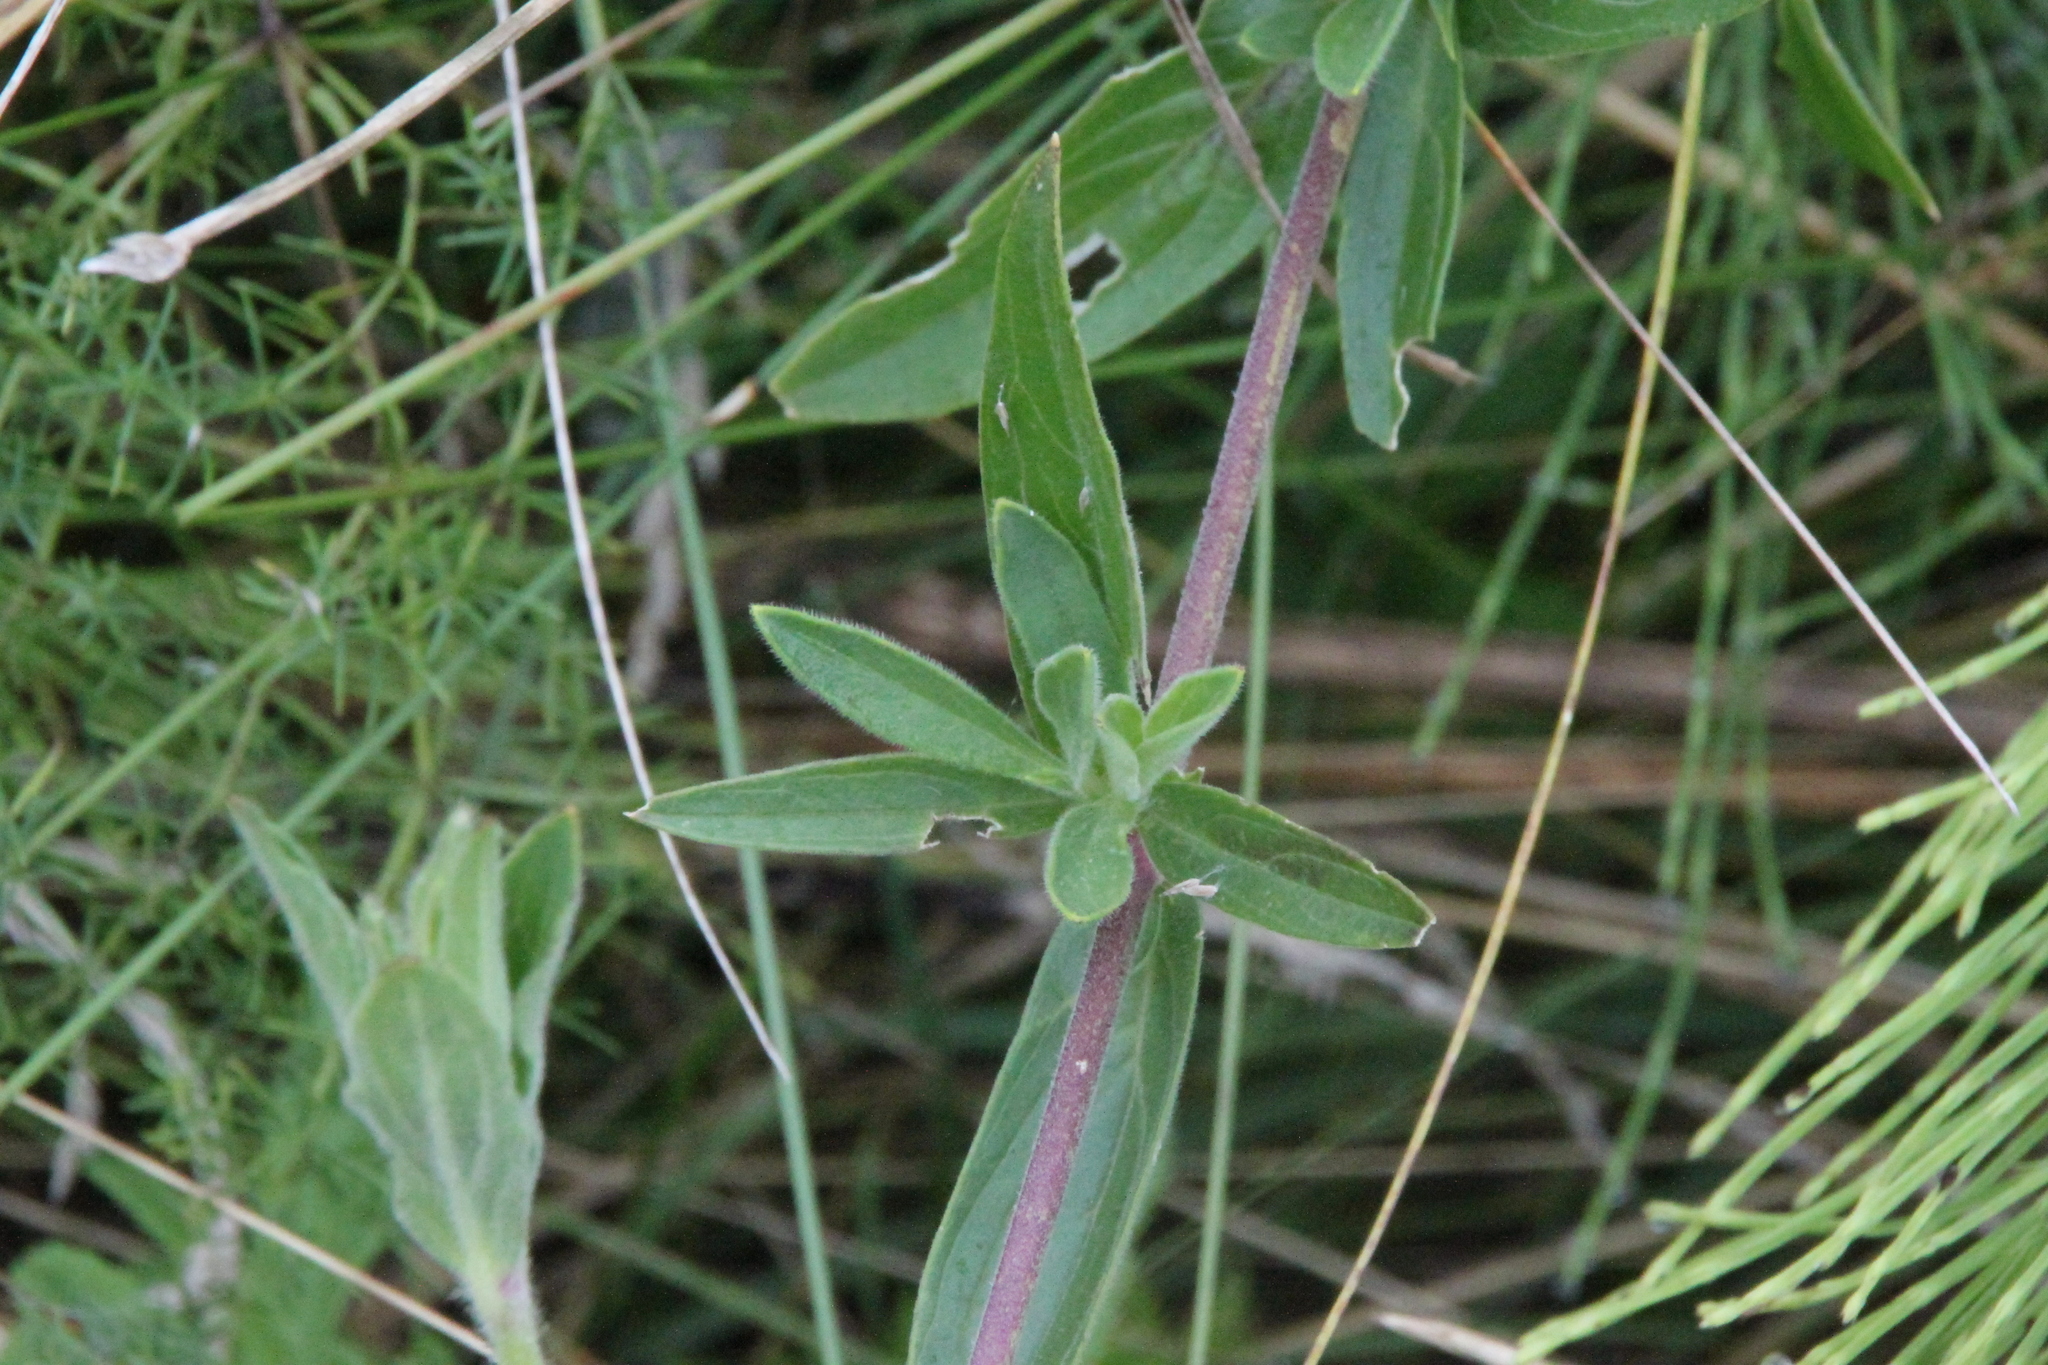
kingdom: Plantae
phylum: Tracheophyta
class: Magnoliopsida
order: Caryophyllales
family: Caryophyllaceae
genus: Silene
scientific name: Silene latifolia
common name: White campion
